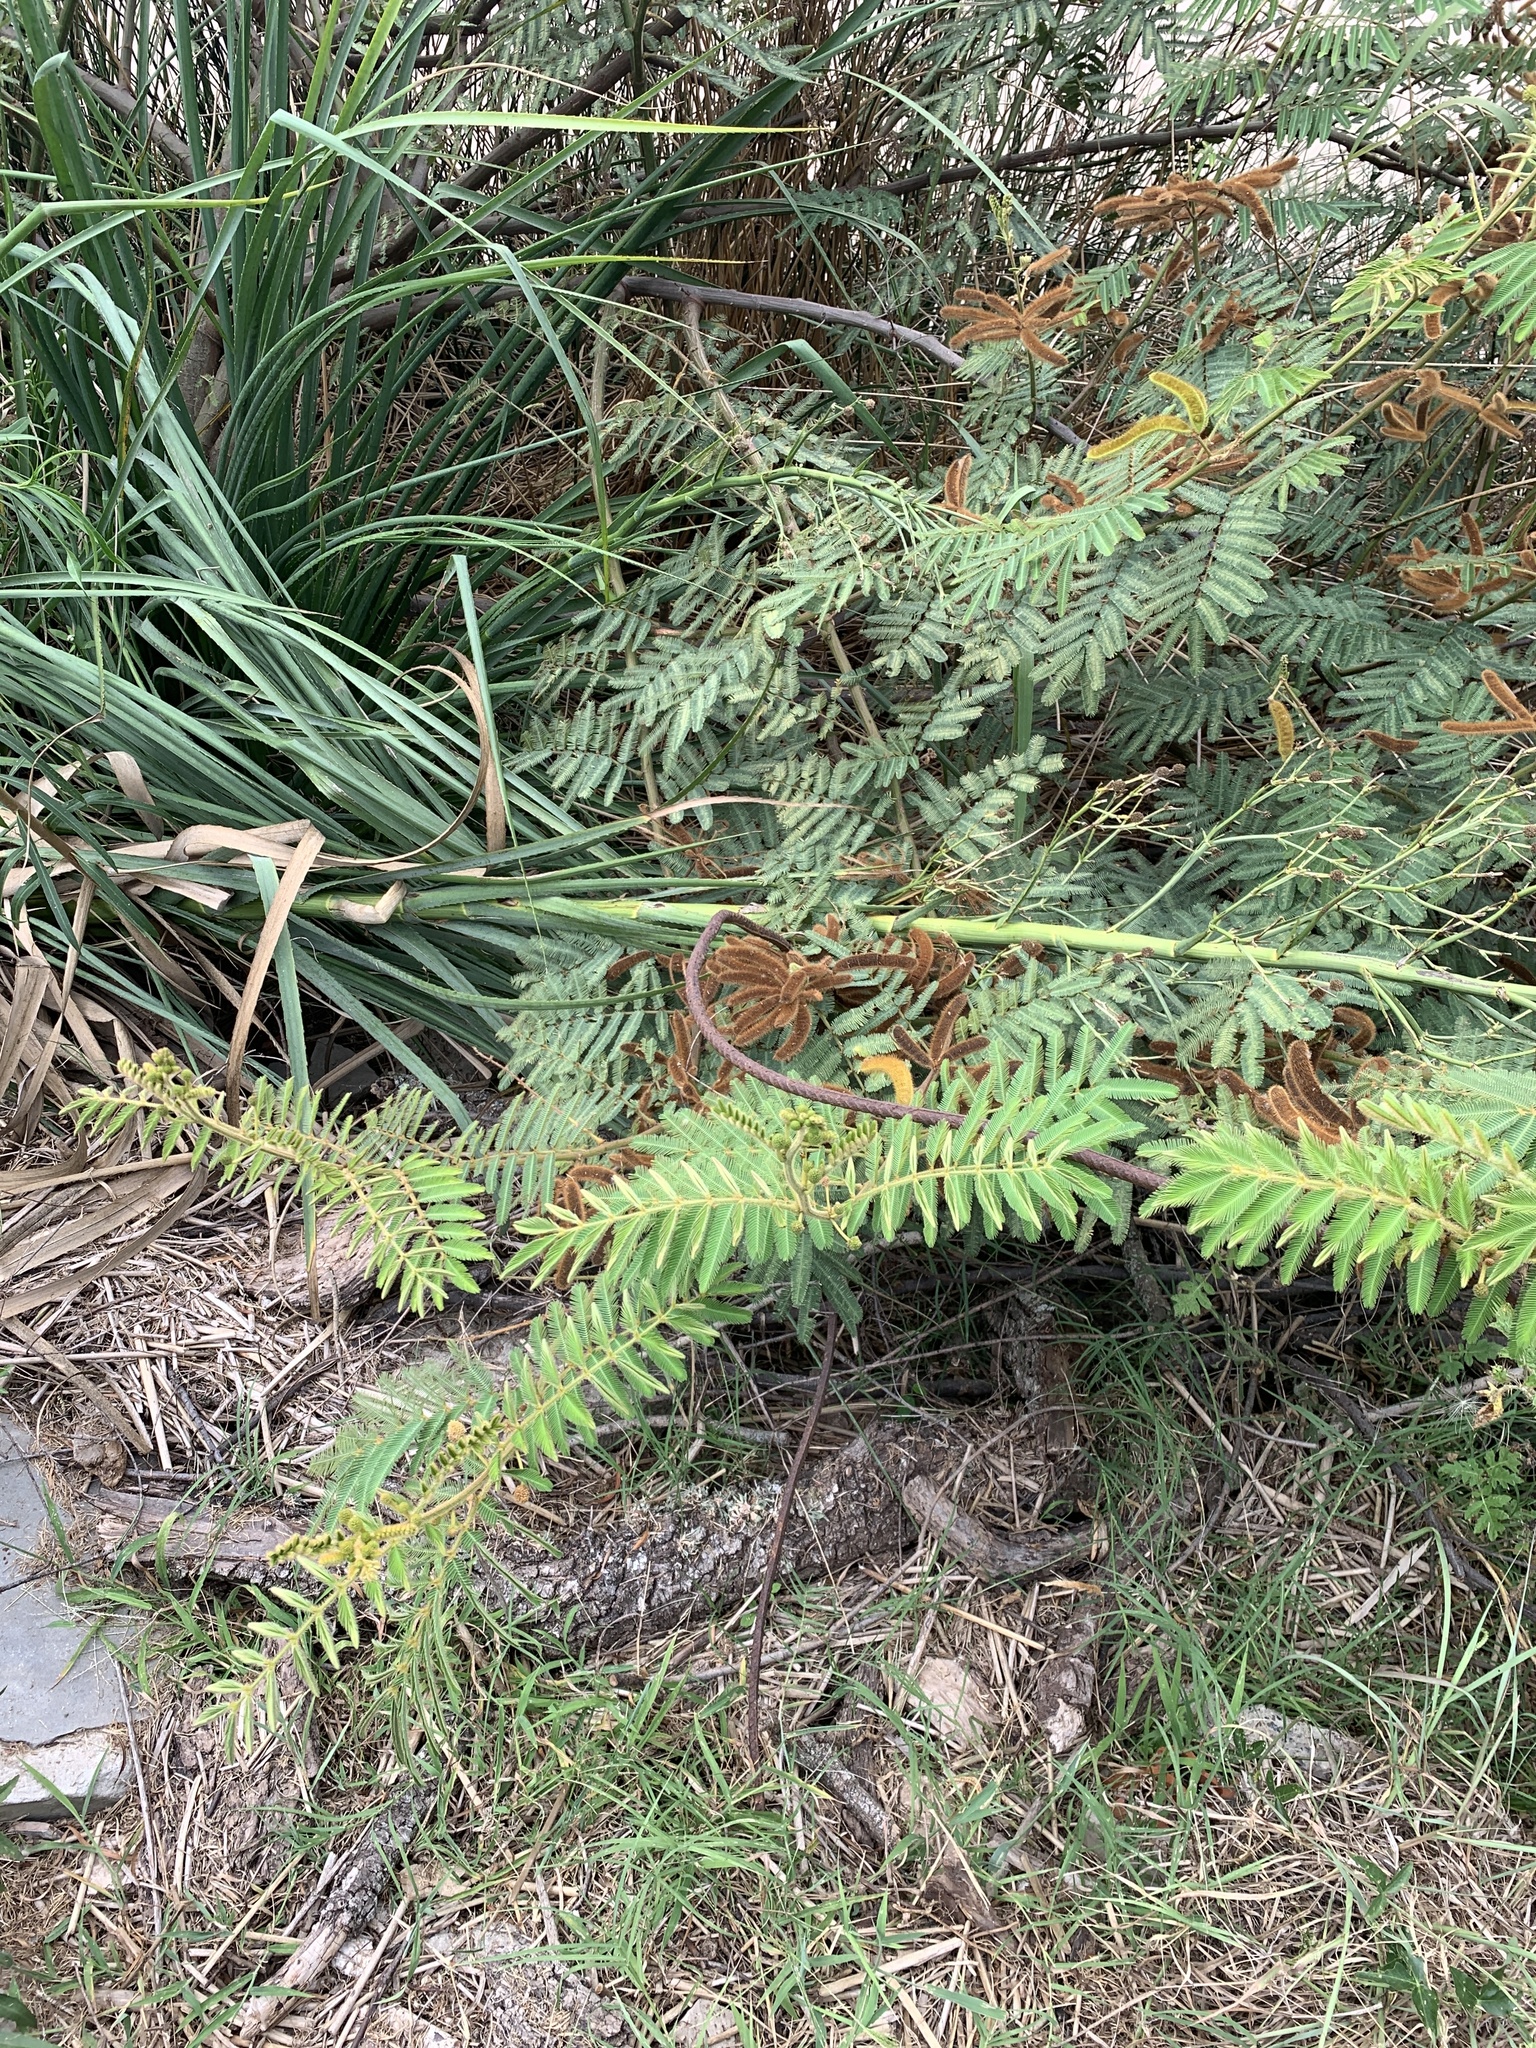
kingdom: Plantae
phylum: Tracheophyta
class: Magnoliopsida
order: Fabales
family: Fabaceae
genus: Mimosa
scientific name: Mimosa pigra
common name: Black mimosa
